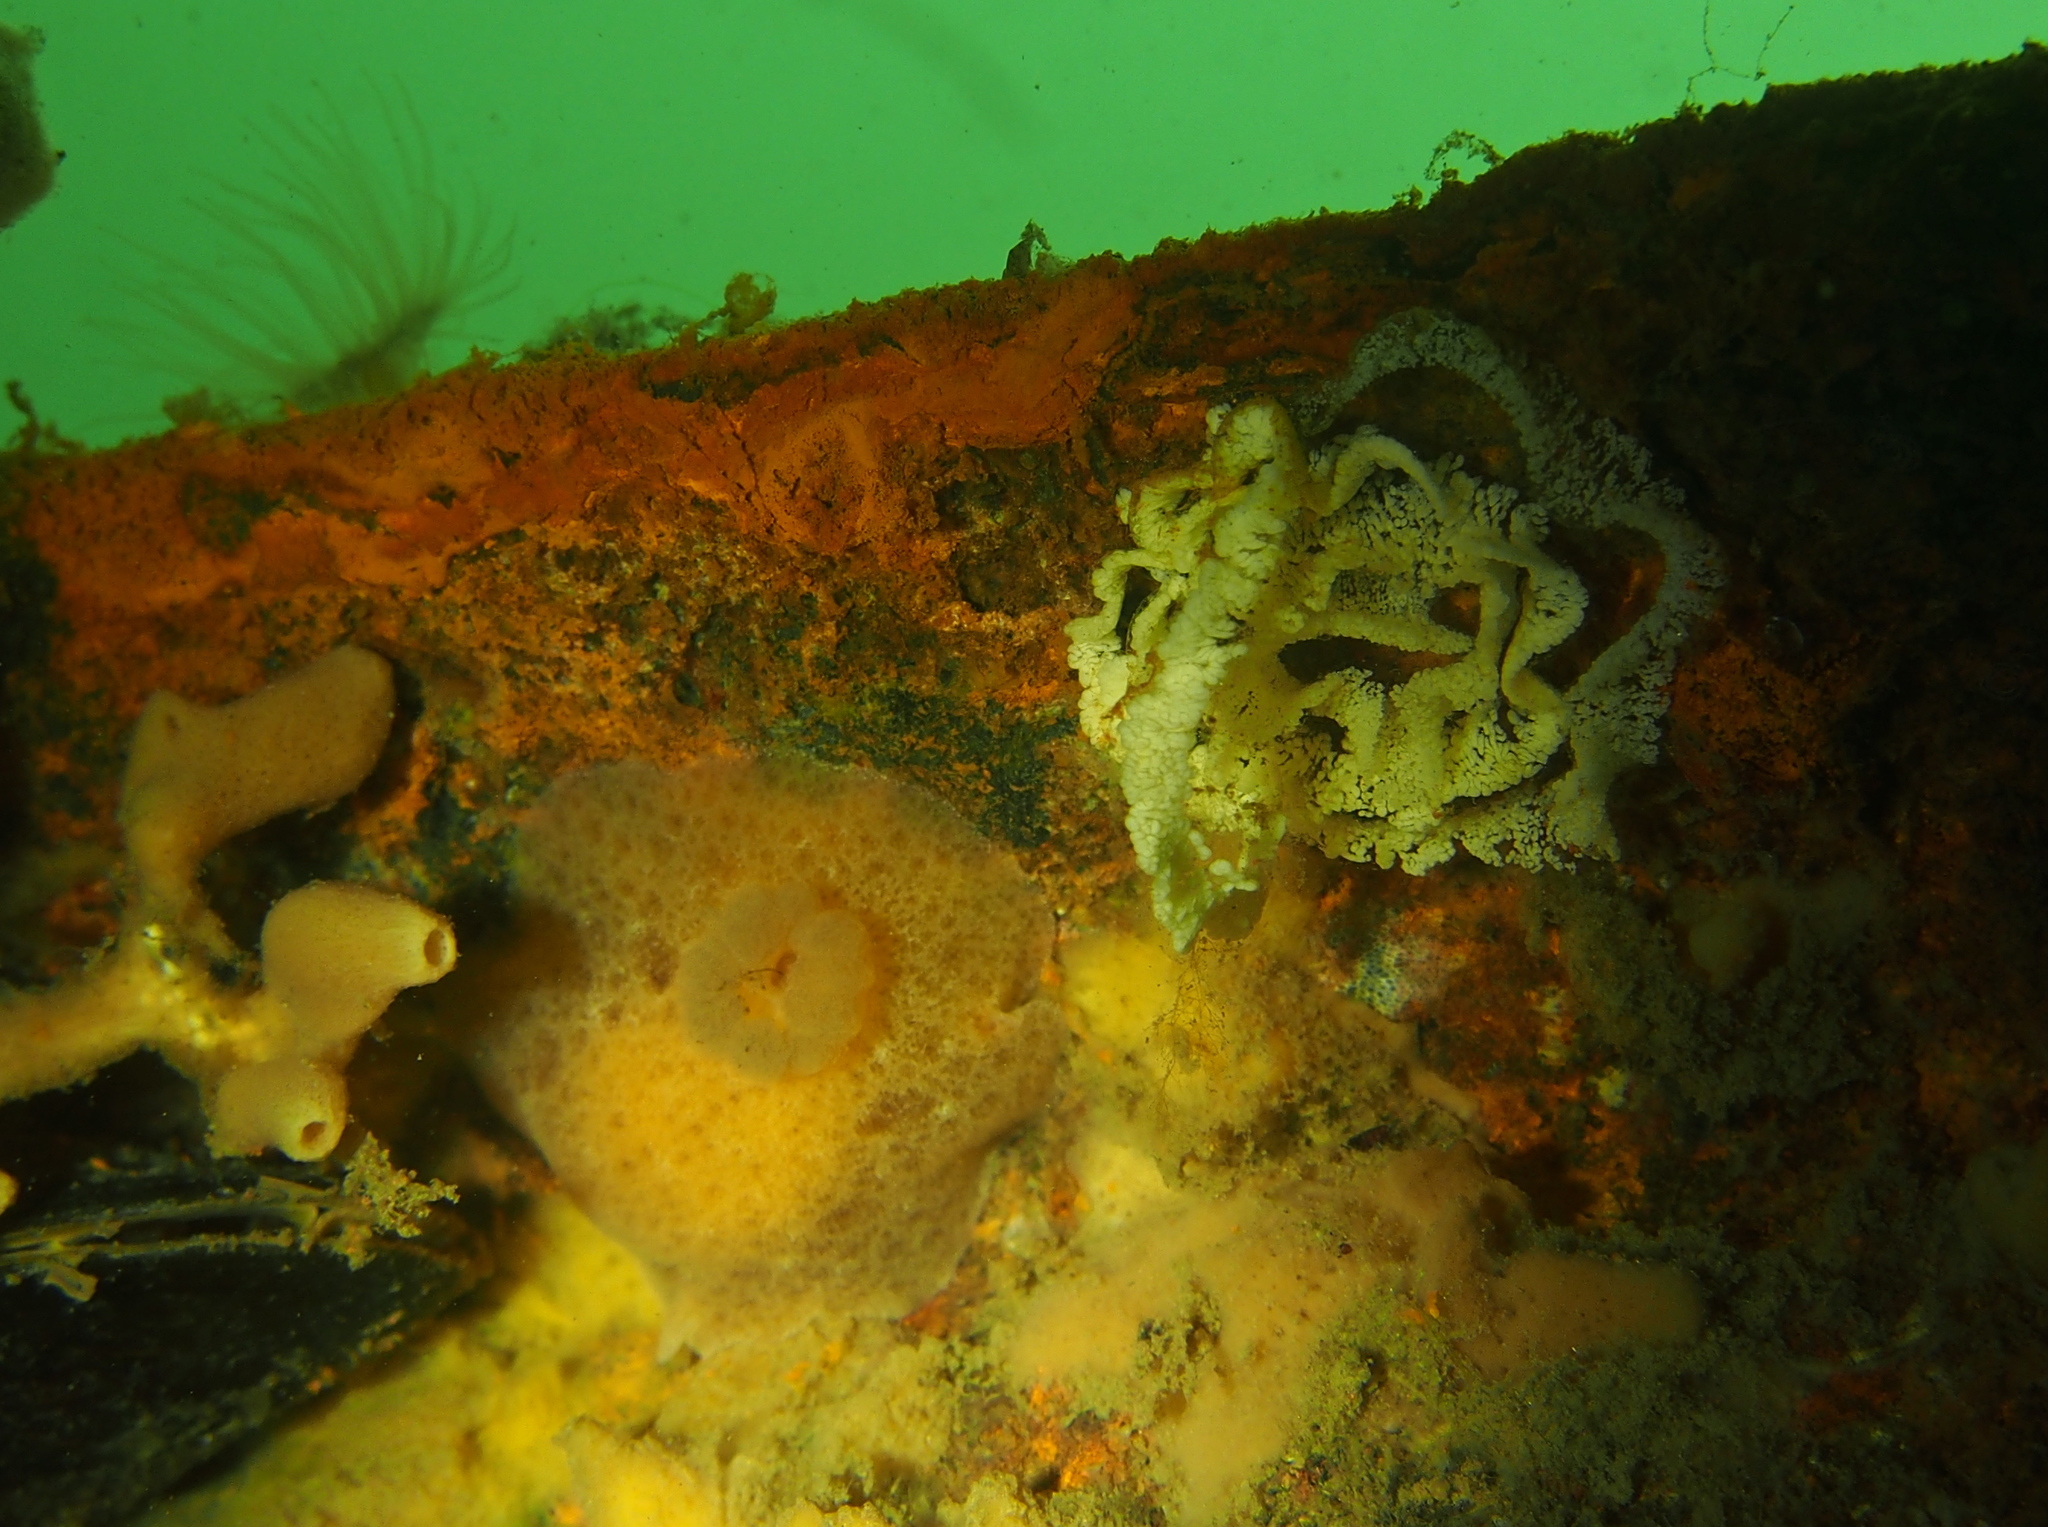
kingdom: Animalia
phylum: Mollusca
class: Gastropoda
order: Nudibranchia
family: Discodorididae
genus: Jorunna
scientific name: Jorunna tomentosa
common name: Grey sea slug
